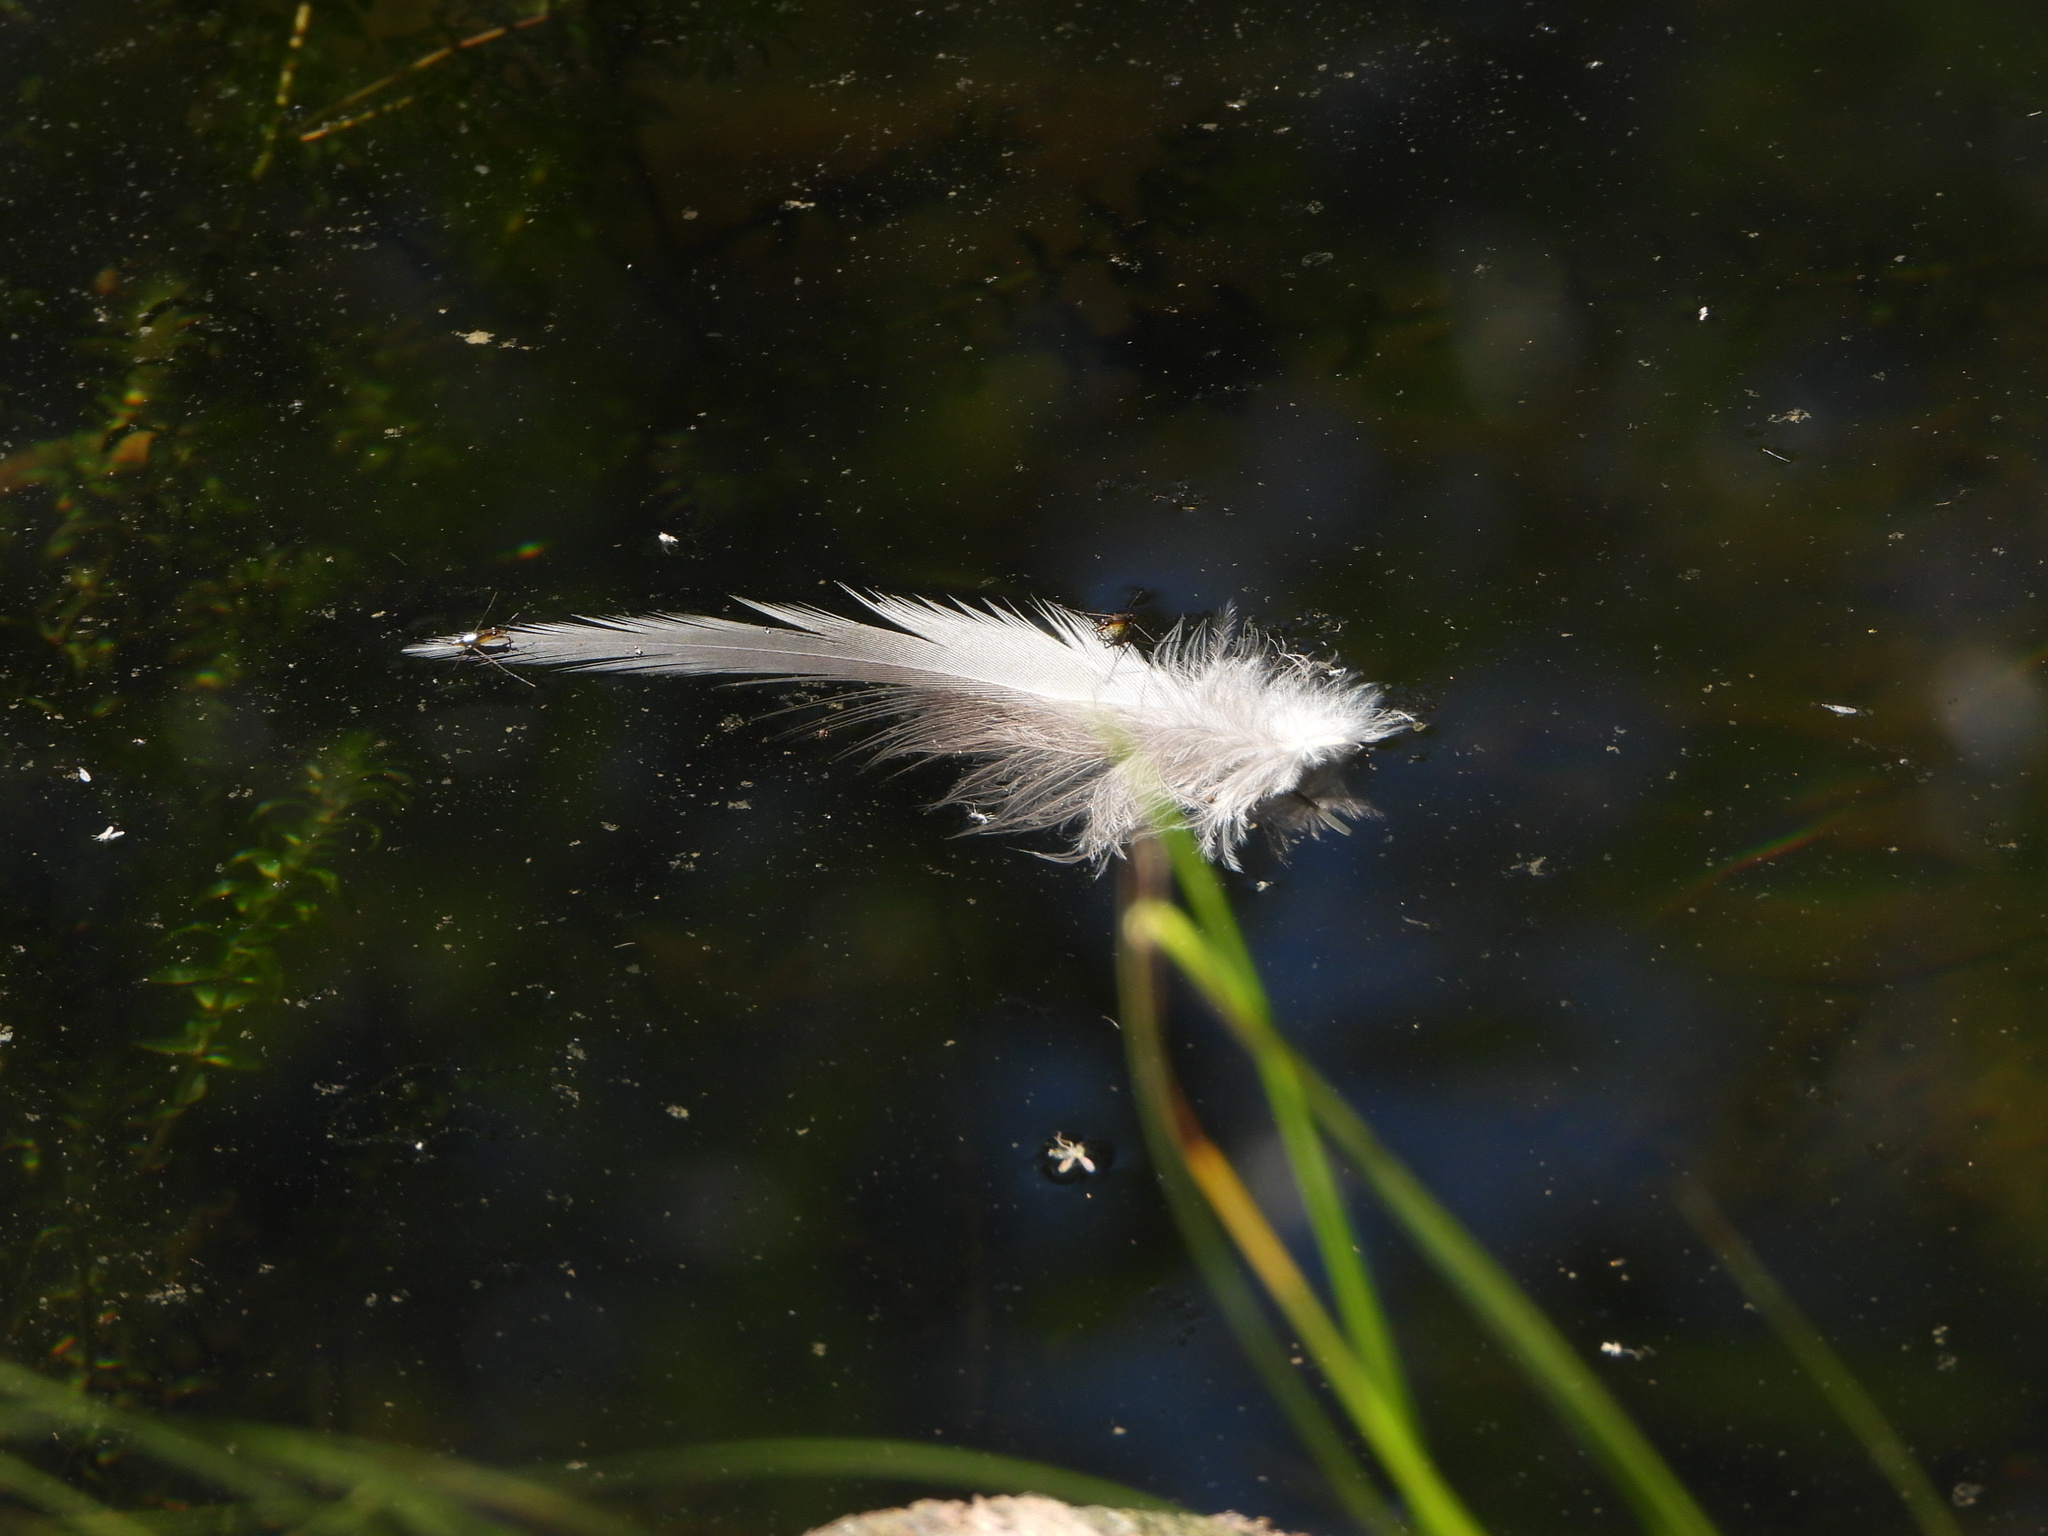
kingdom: Animalia
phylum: Chordata
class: Aves
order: Pelecaniformes
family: Ardeidae
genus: Ardea
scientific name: Ardea herodias
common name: Great blue heron
